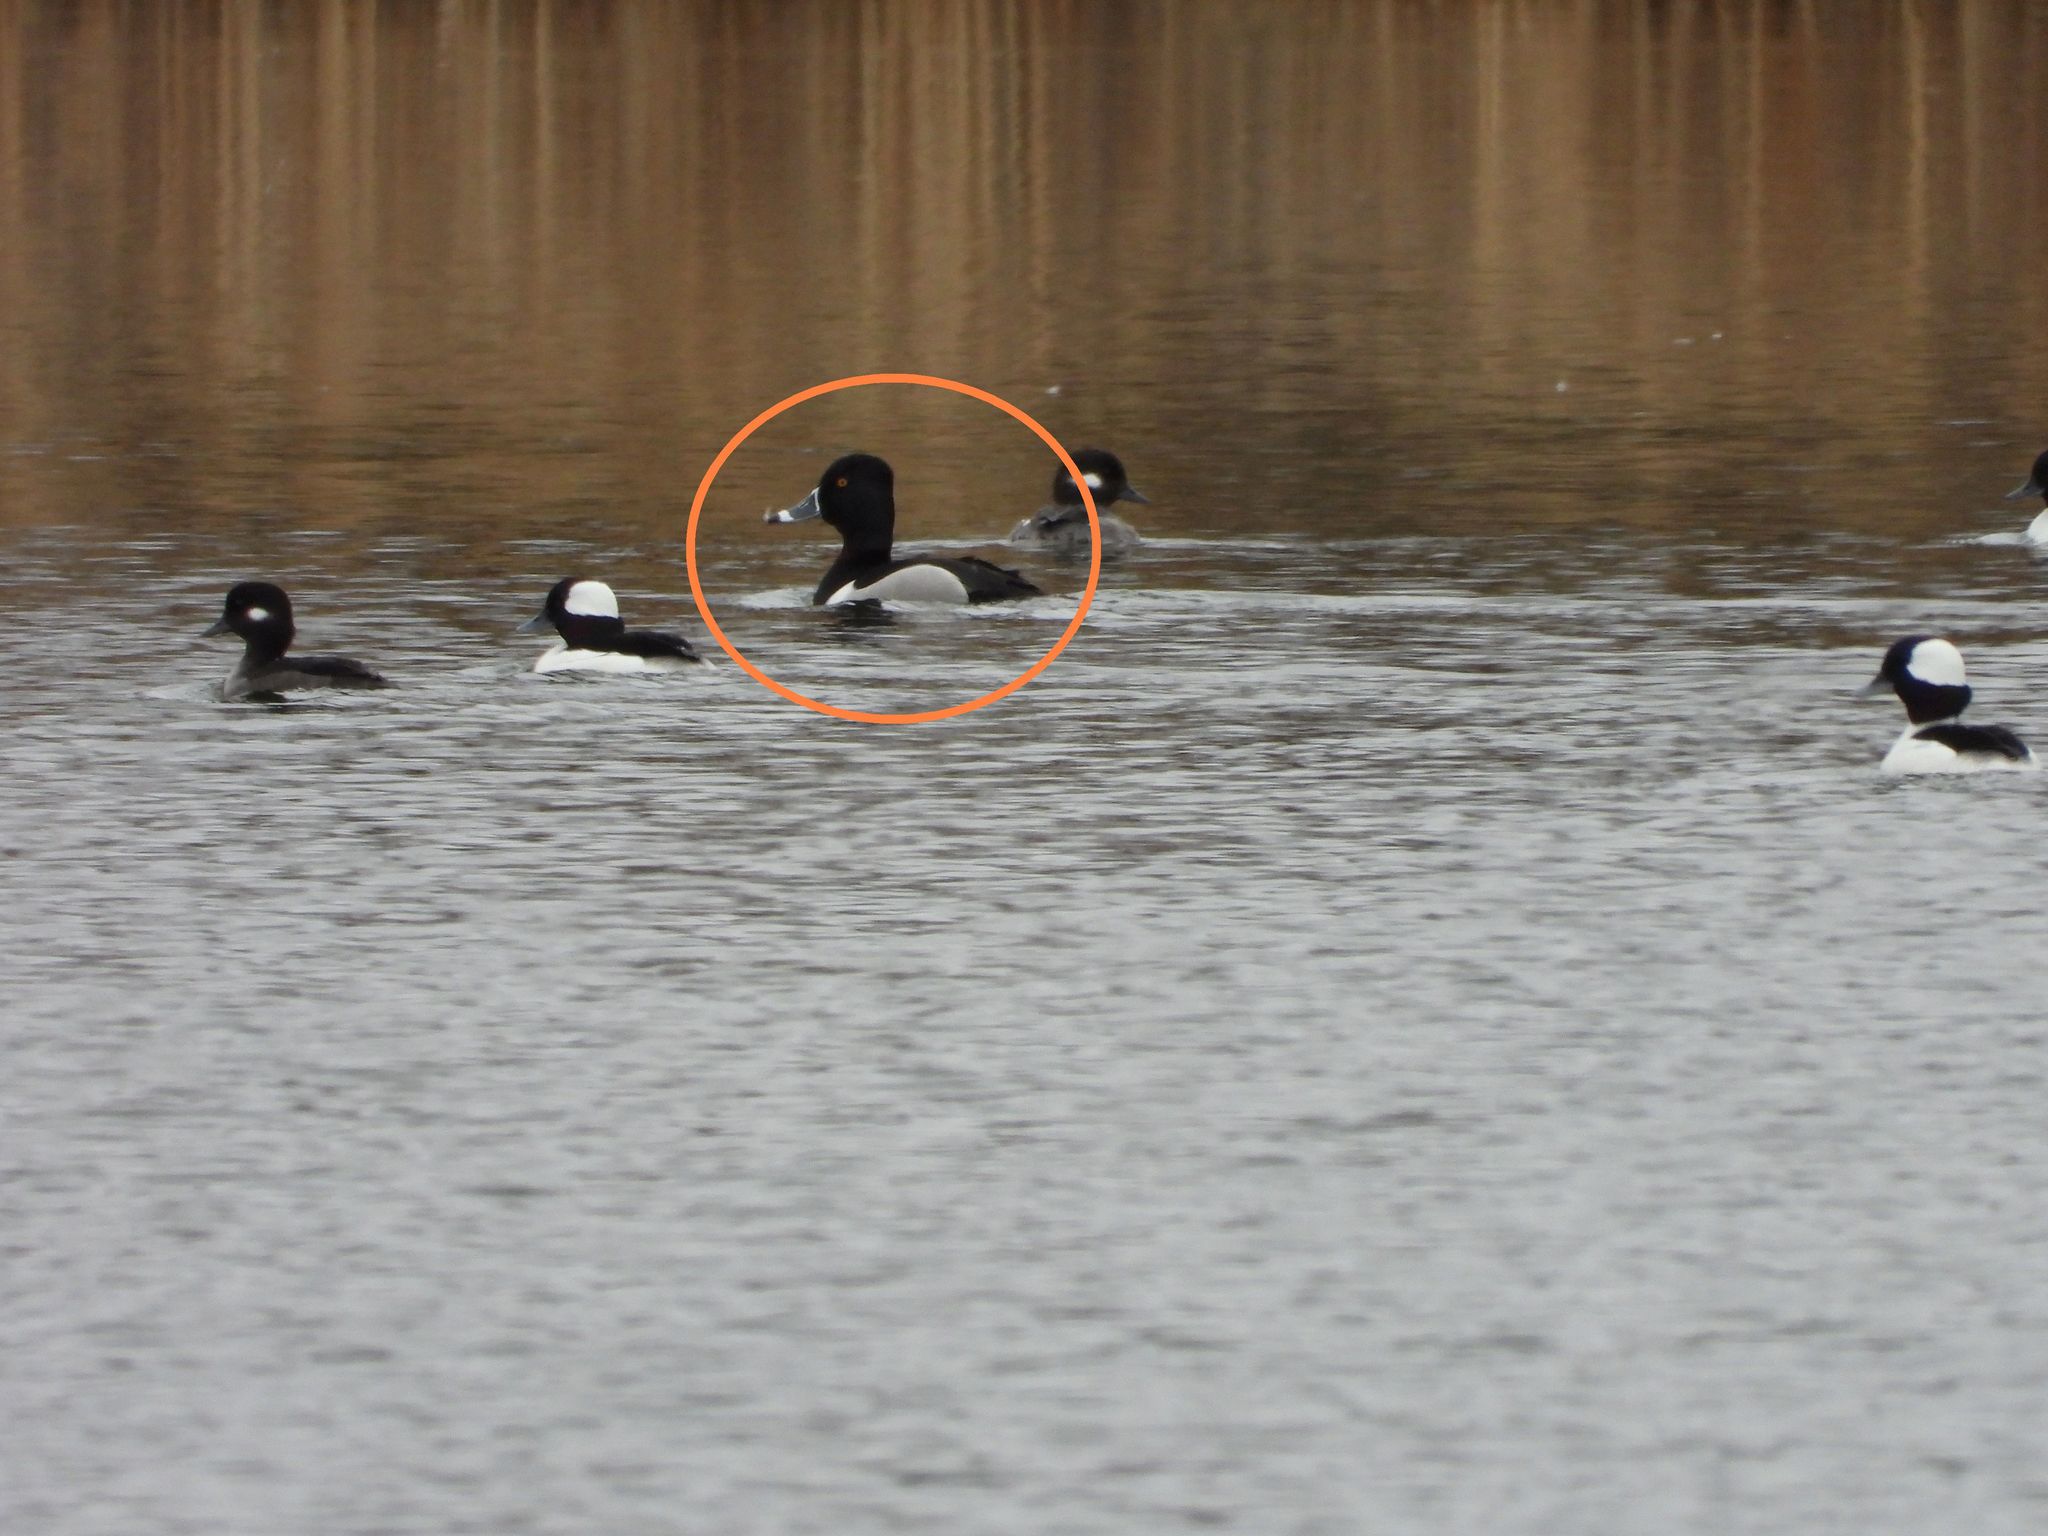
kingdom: Animalia
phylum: Chordata
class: Aves
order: Anseriformes
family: Anatidae
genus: Aythya
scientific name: Aythya collaris
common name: Ring-necked duck
